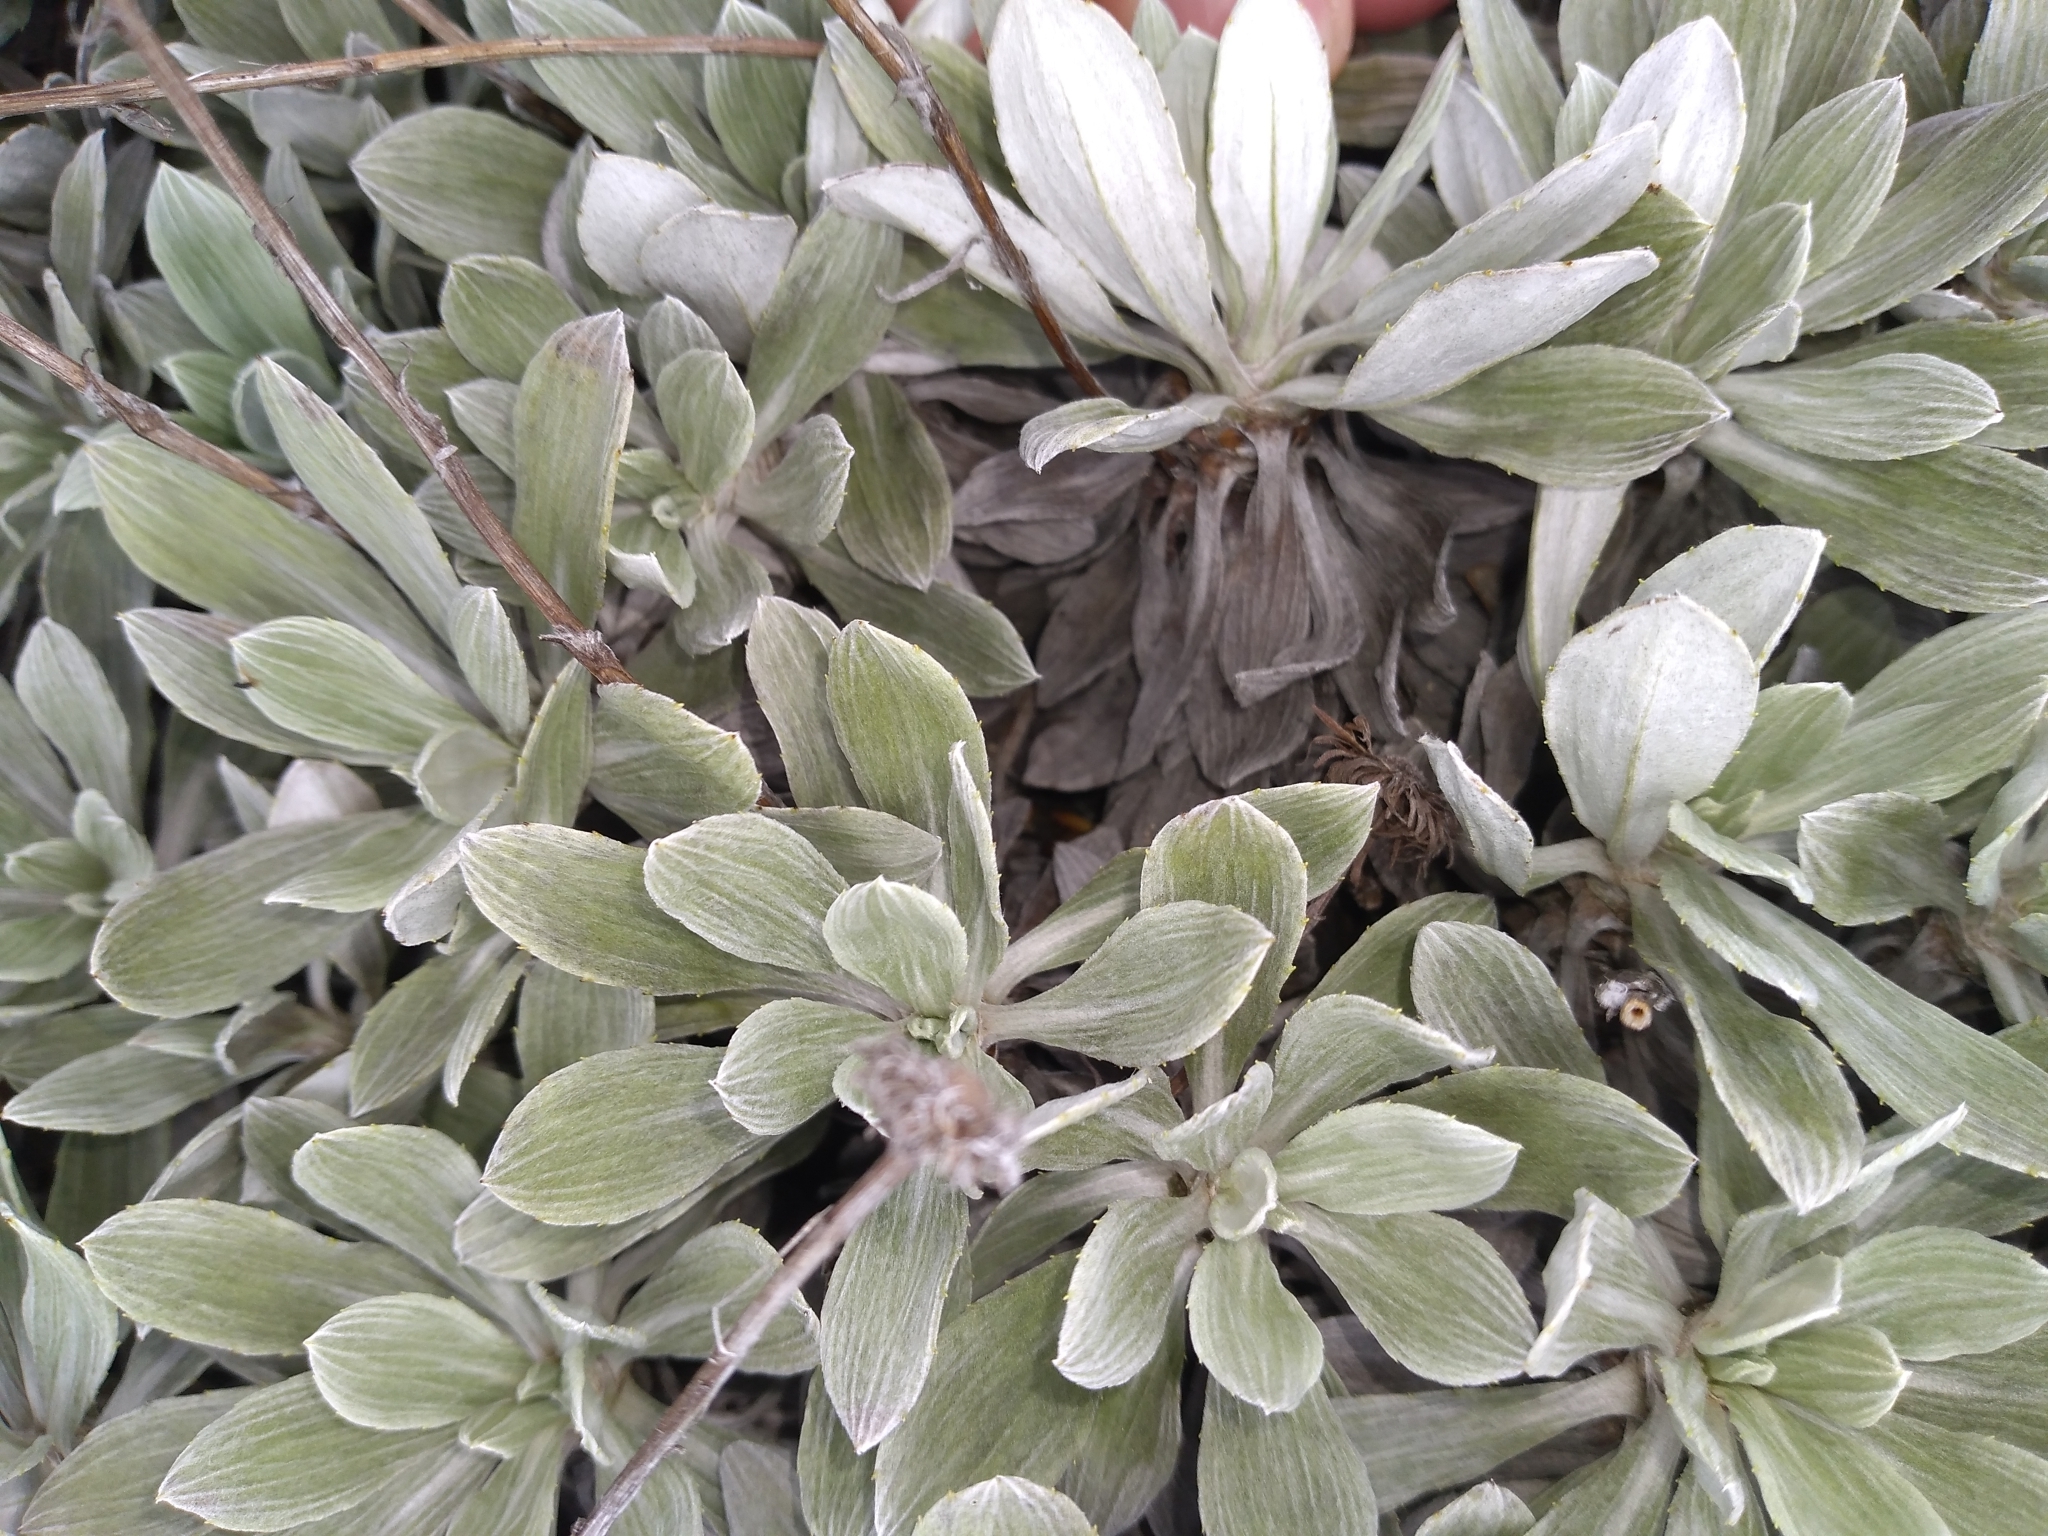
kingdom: Plantae
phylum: Tracheophyta
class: Magnoliopsida
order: Asterales
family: Asteraceae
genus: Celmisia
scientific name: Celmisia incana
